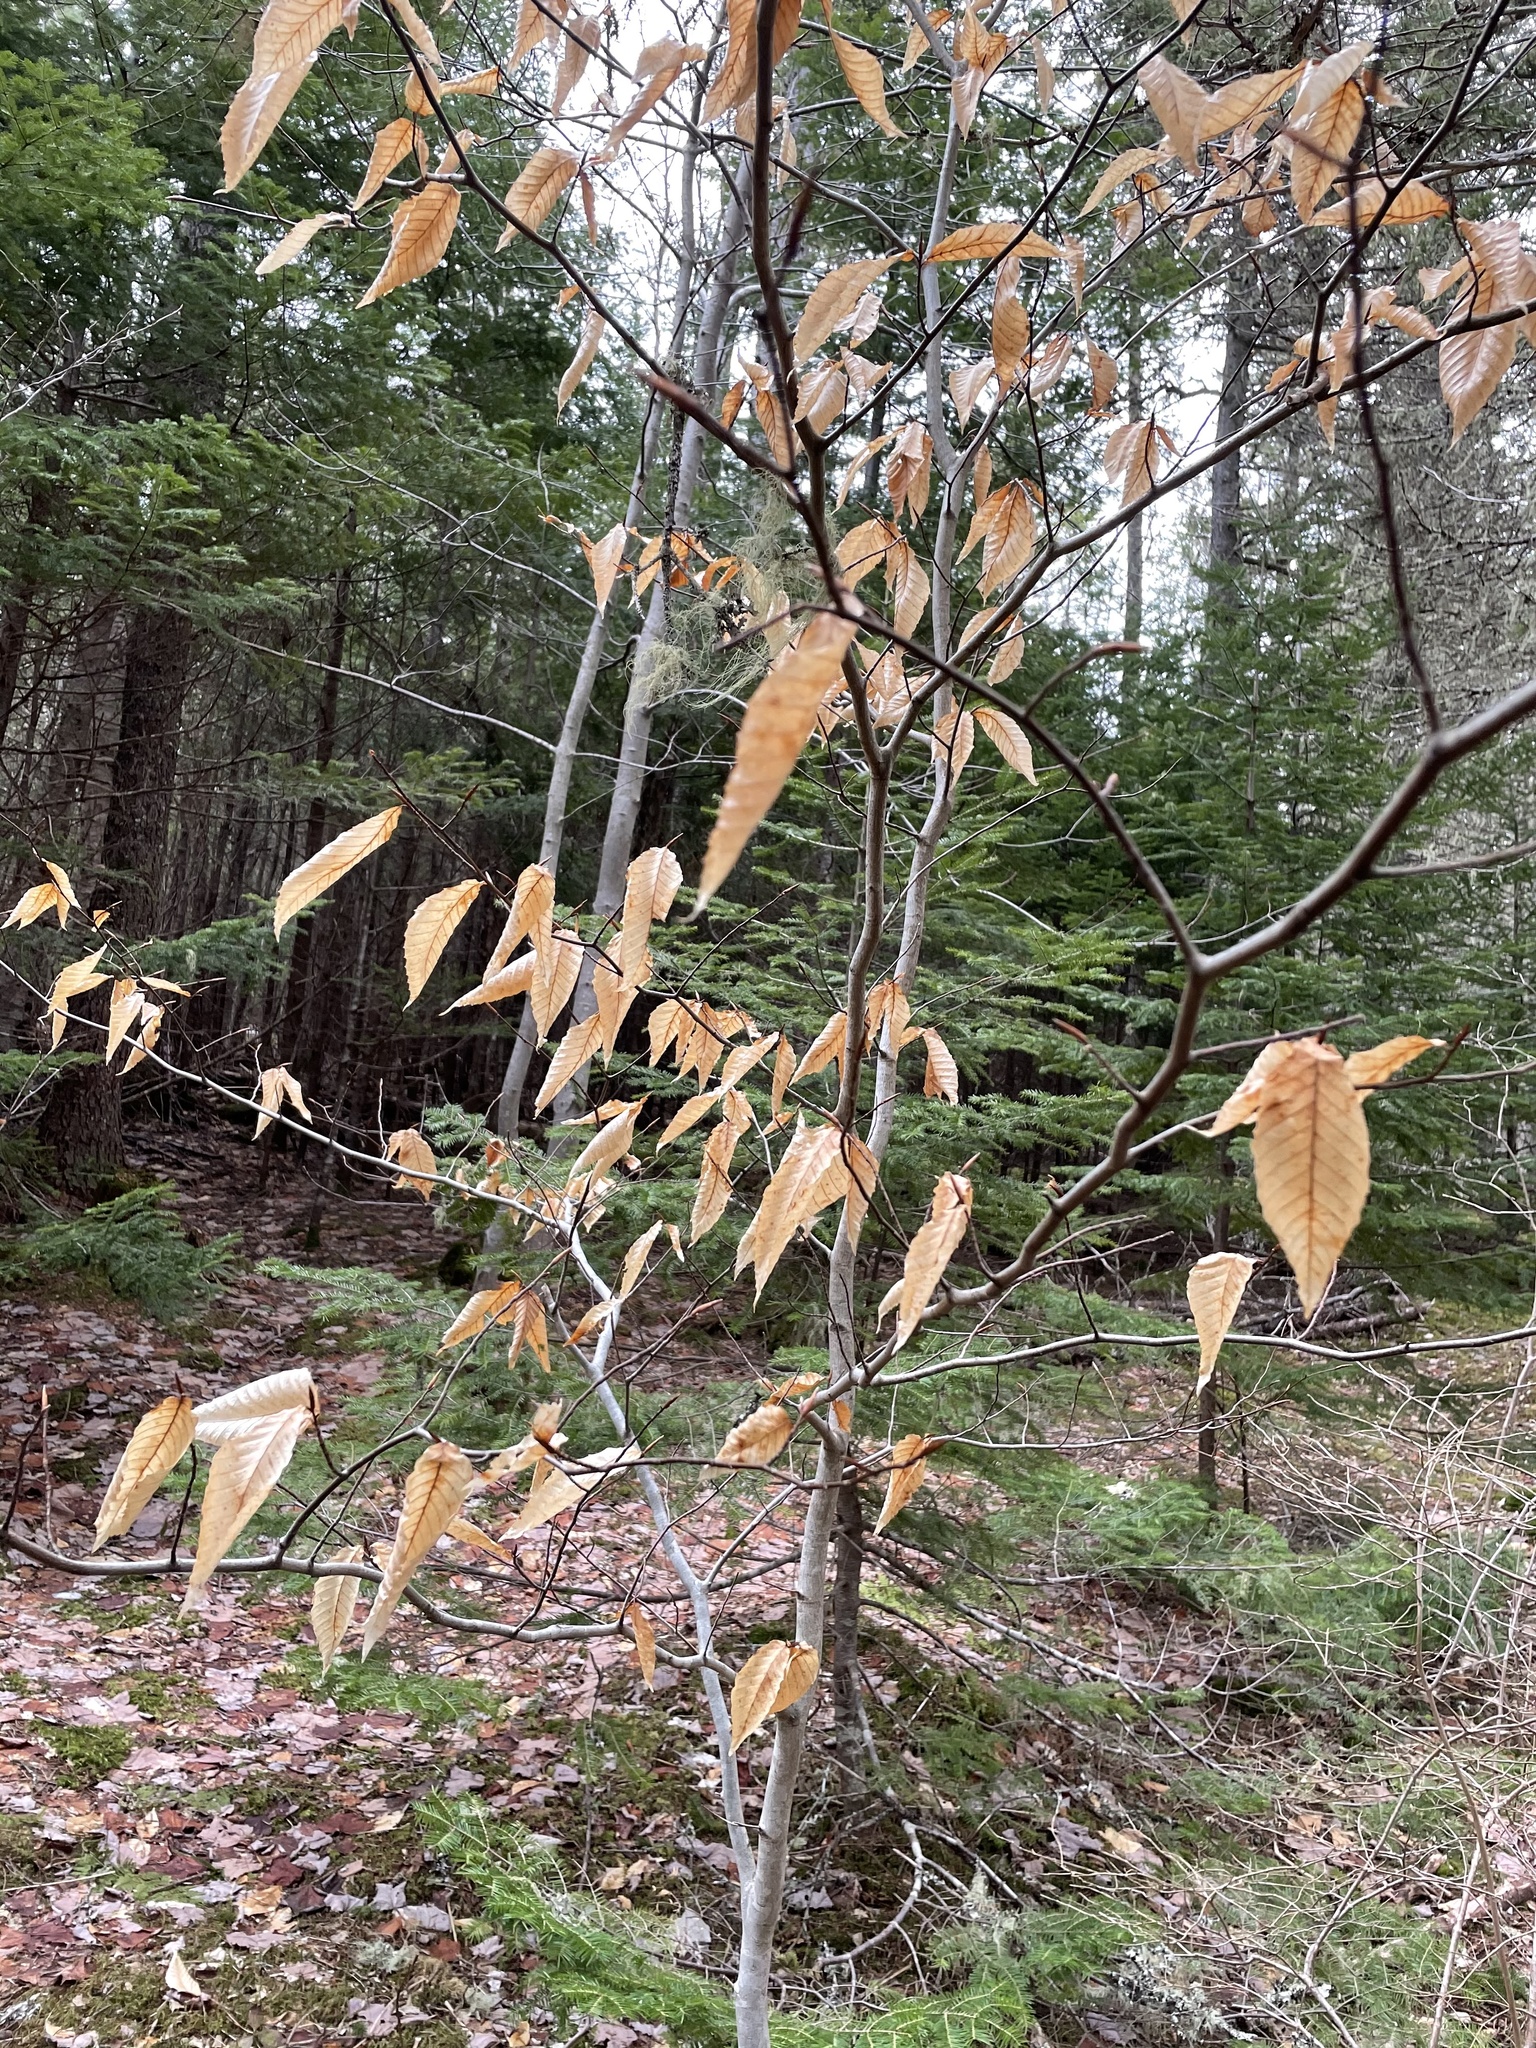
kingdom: Plantae
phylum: Tracheophyta
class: Magnoliopsida
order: Fagales
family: Fagaceae
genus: Fagus
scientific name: Fagus grandifolia
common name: American beech
